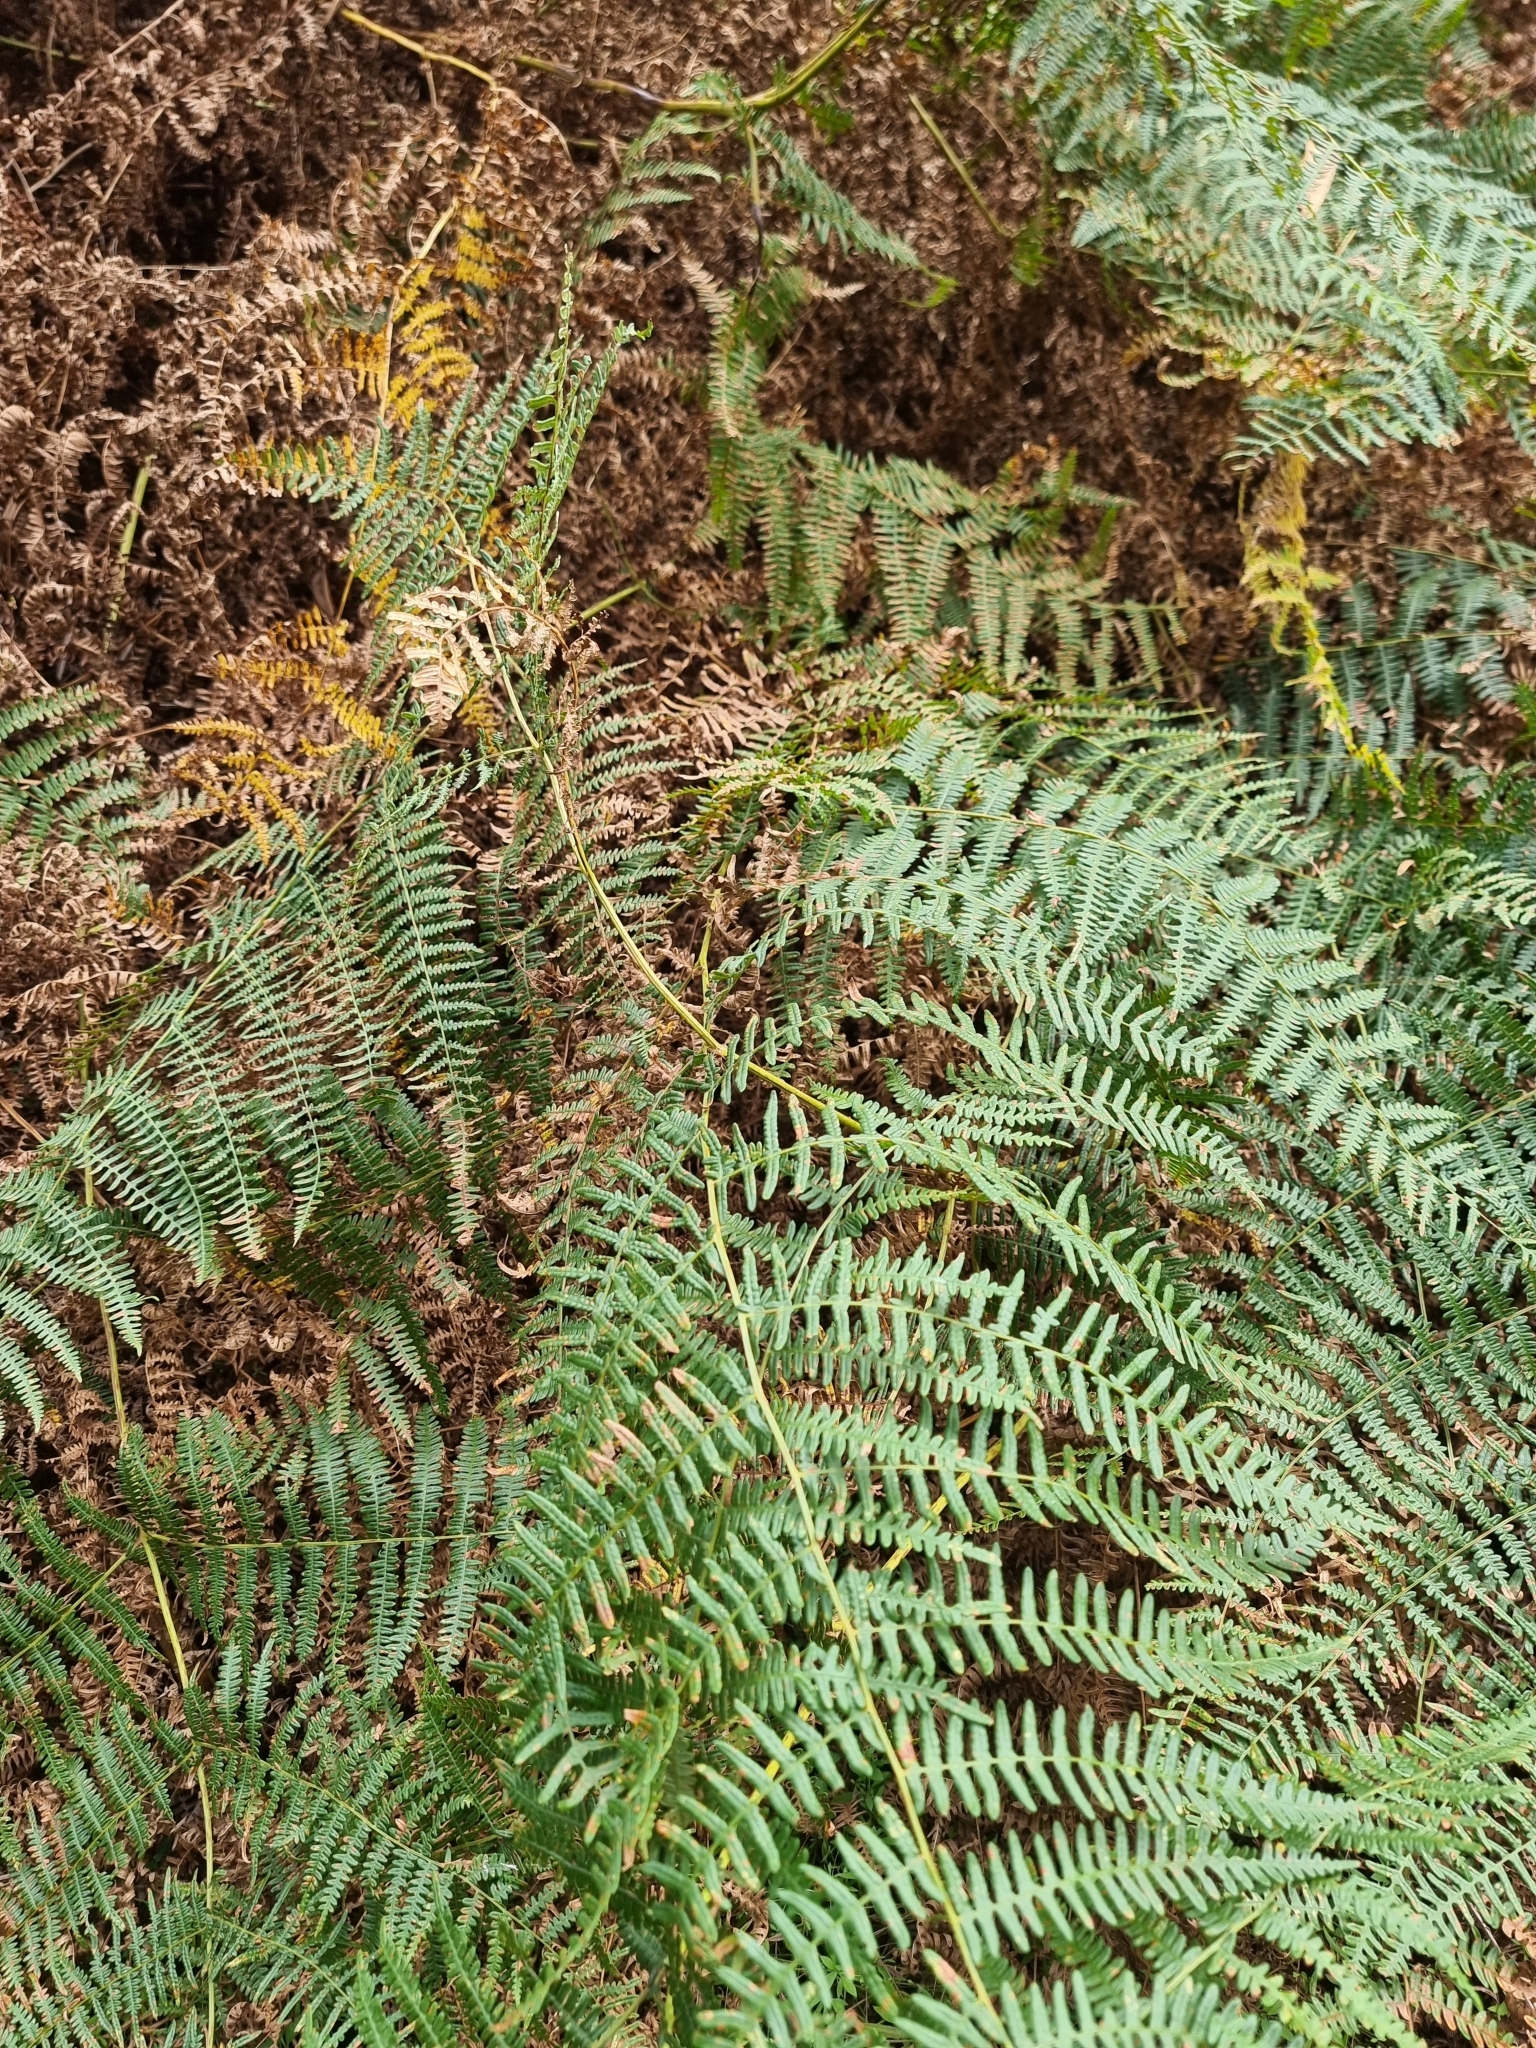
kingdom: Plantae
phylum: Tracheophyta
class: Polypodiopsida
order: Polypodiales
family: Dennstaedtiaceae
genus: Pteridium
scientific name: Pteridium aquilinum
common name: Bracken
